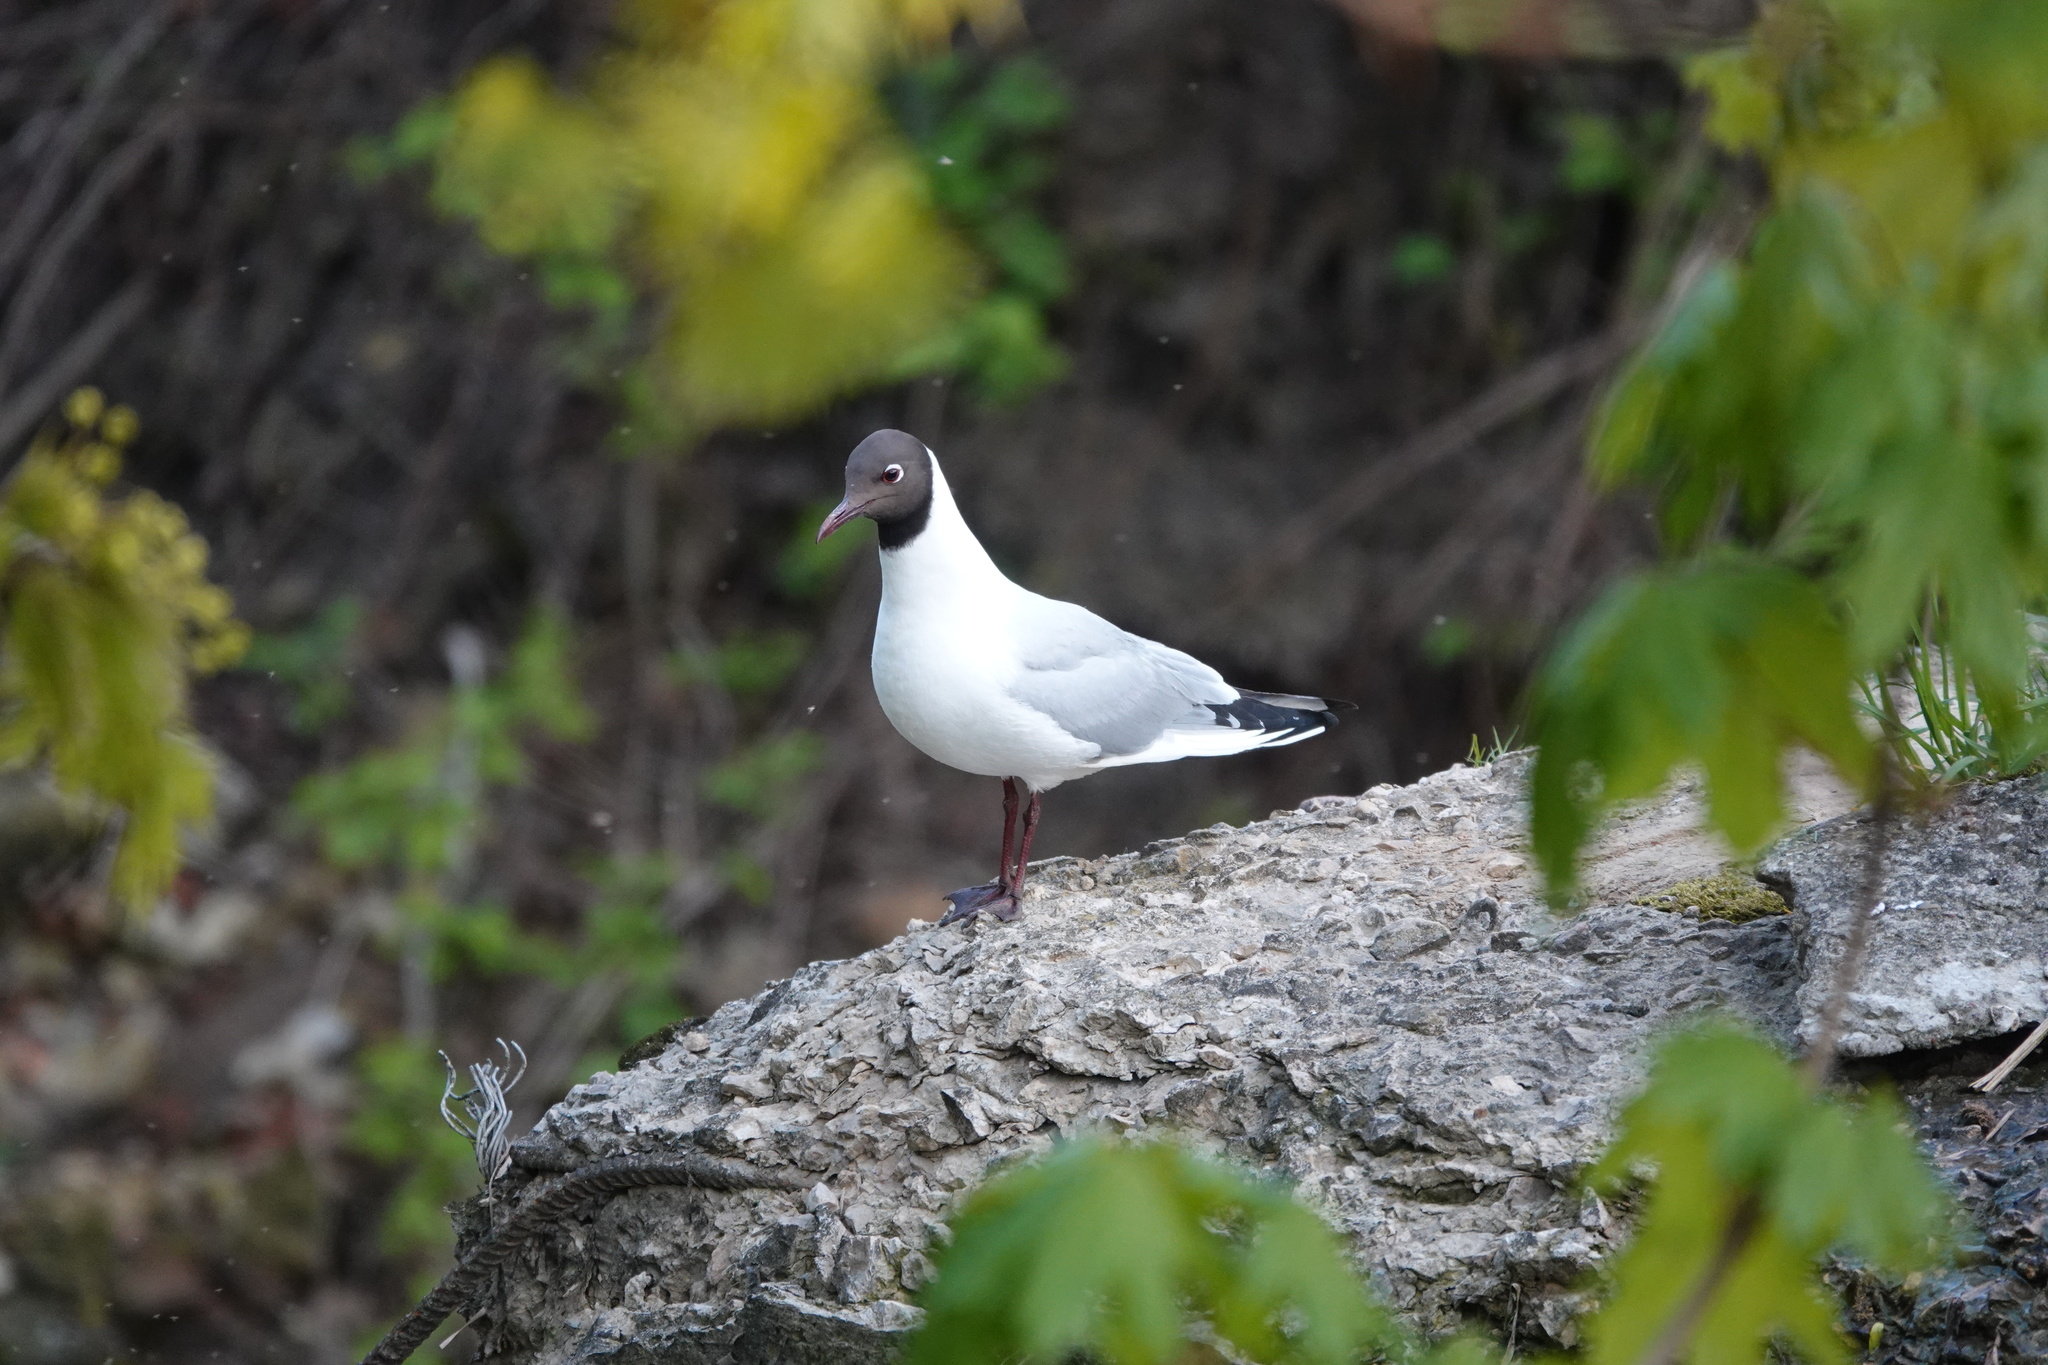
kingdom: Animalia
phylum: Chordata
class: Aves
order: Charadriiformes
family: Laridae
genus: Chroicocephalus
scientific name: Chroicocephalus ridibundus
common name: Black-headed gull
